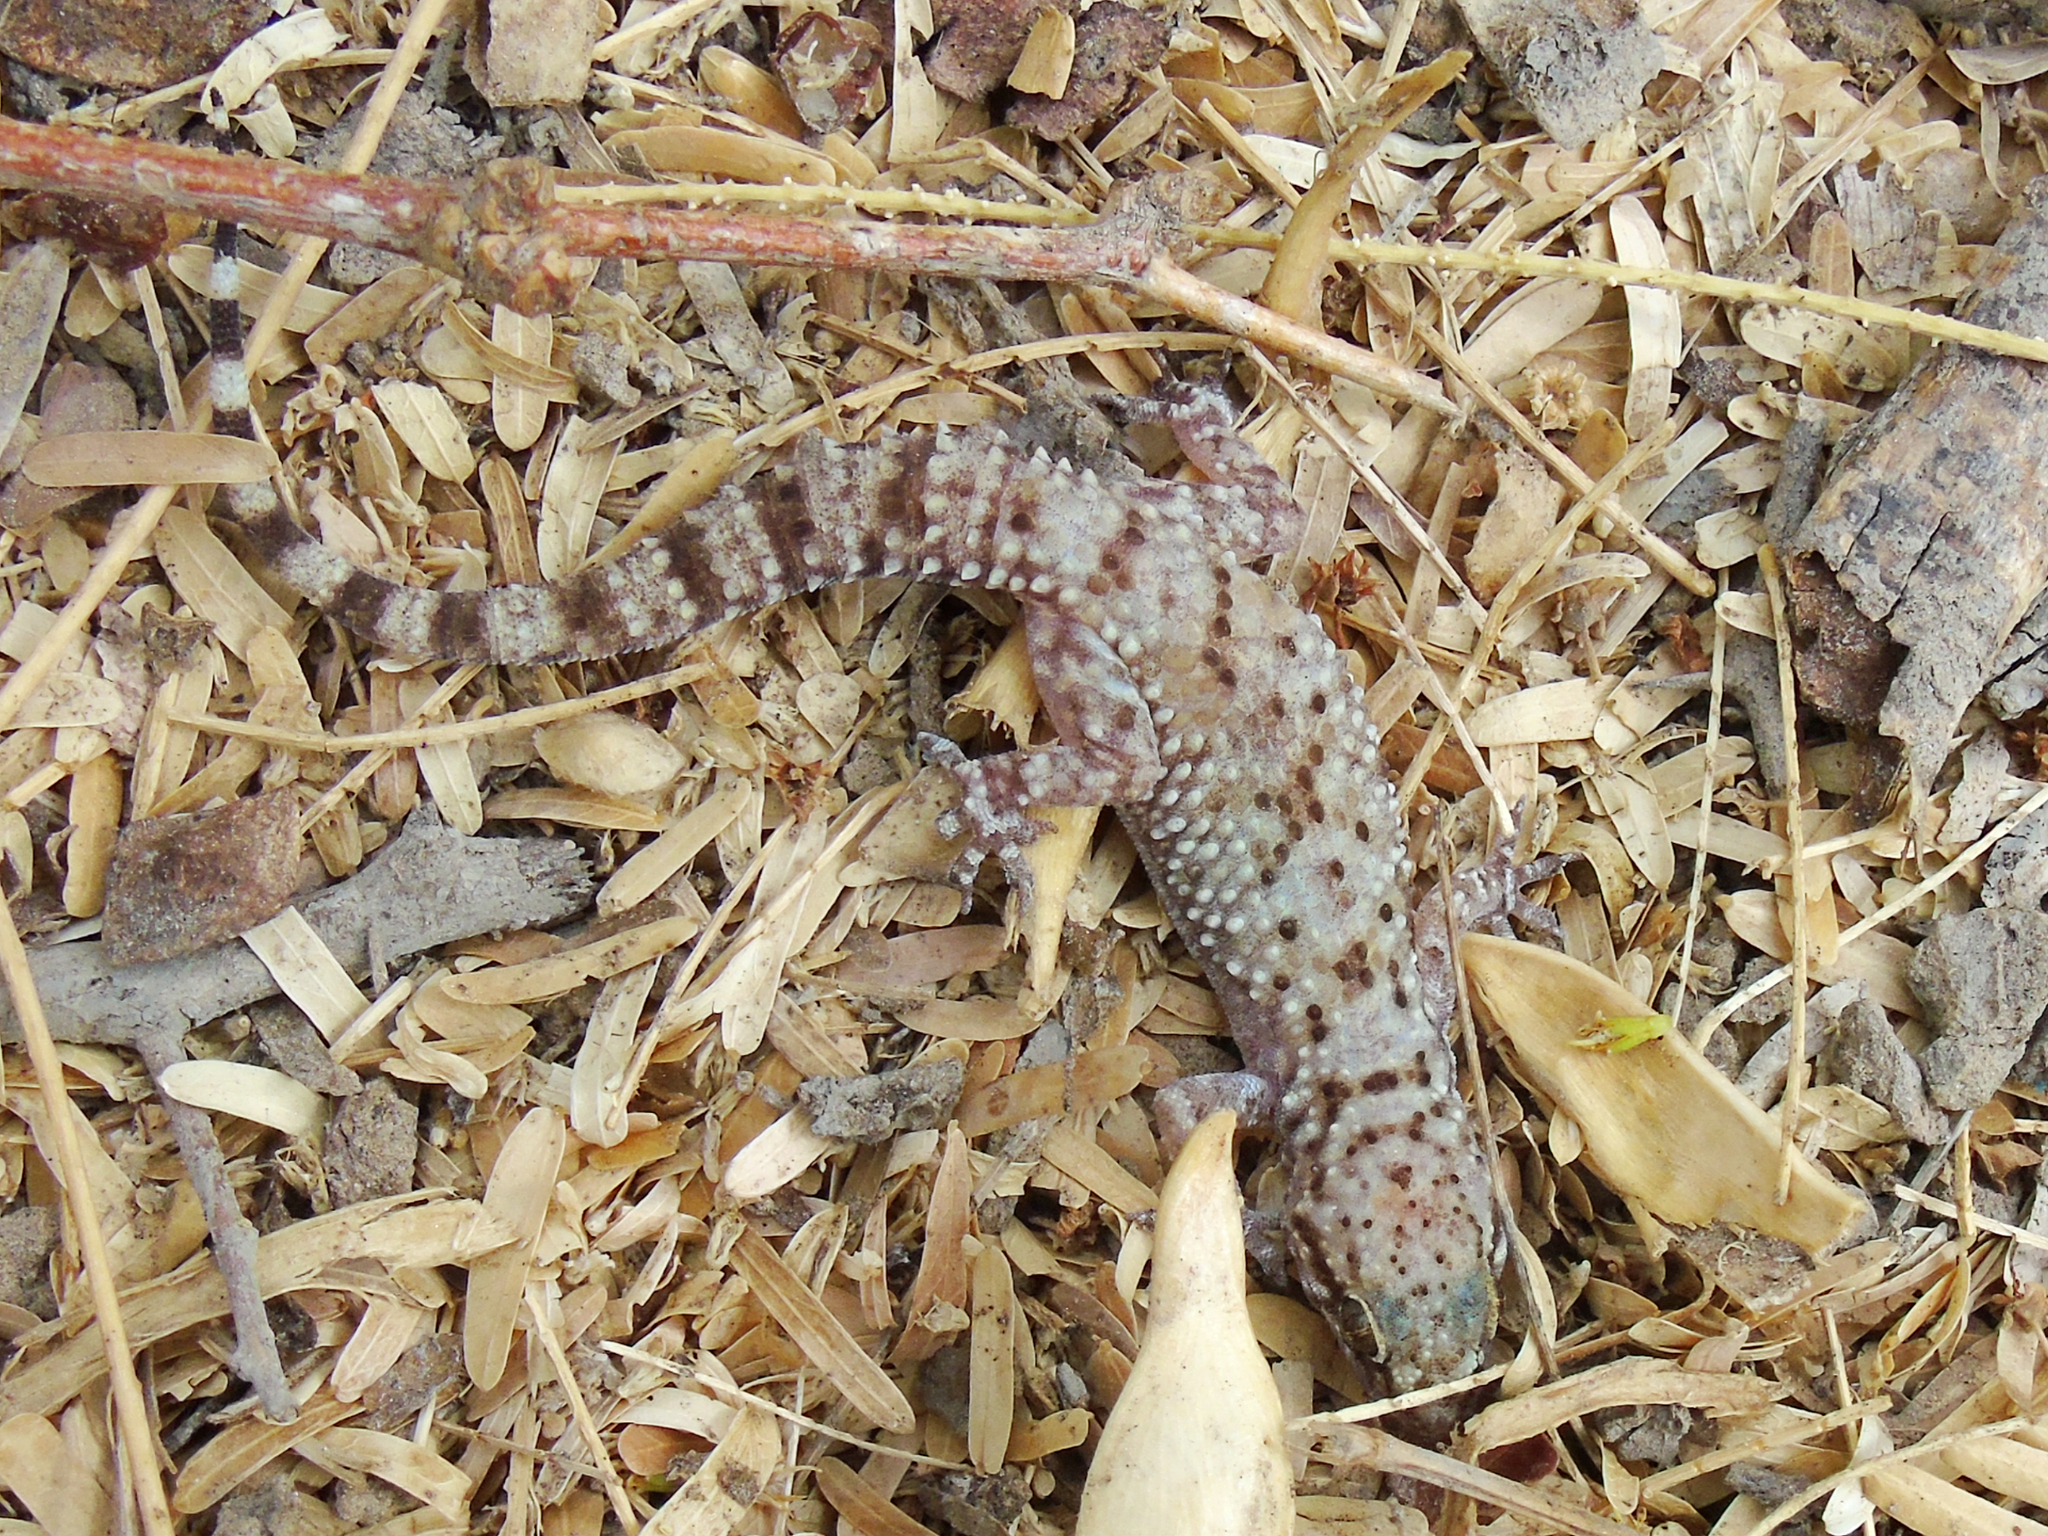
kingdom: Animalia
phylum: Chordata
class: Squamata
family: Gekkonidae
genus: Hemidactylus
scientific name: Hemidactylus granosus
